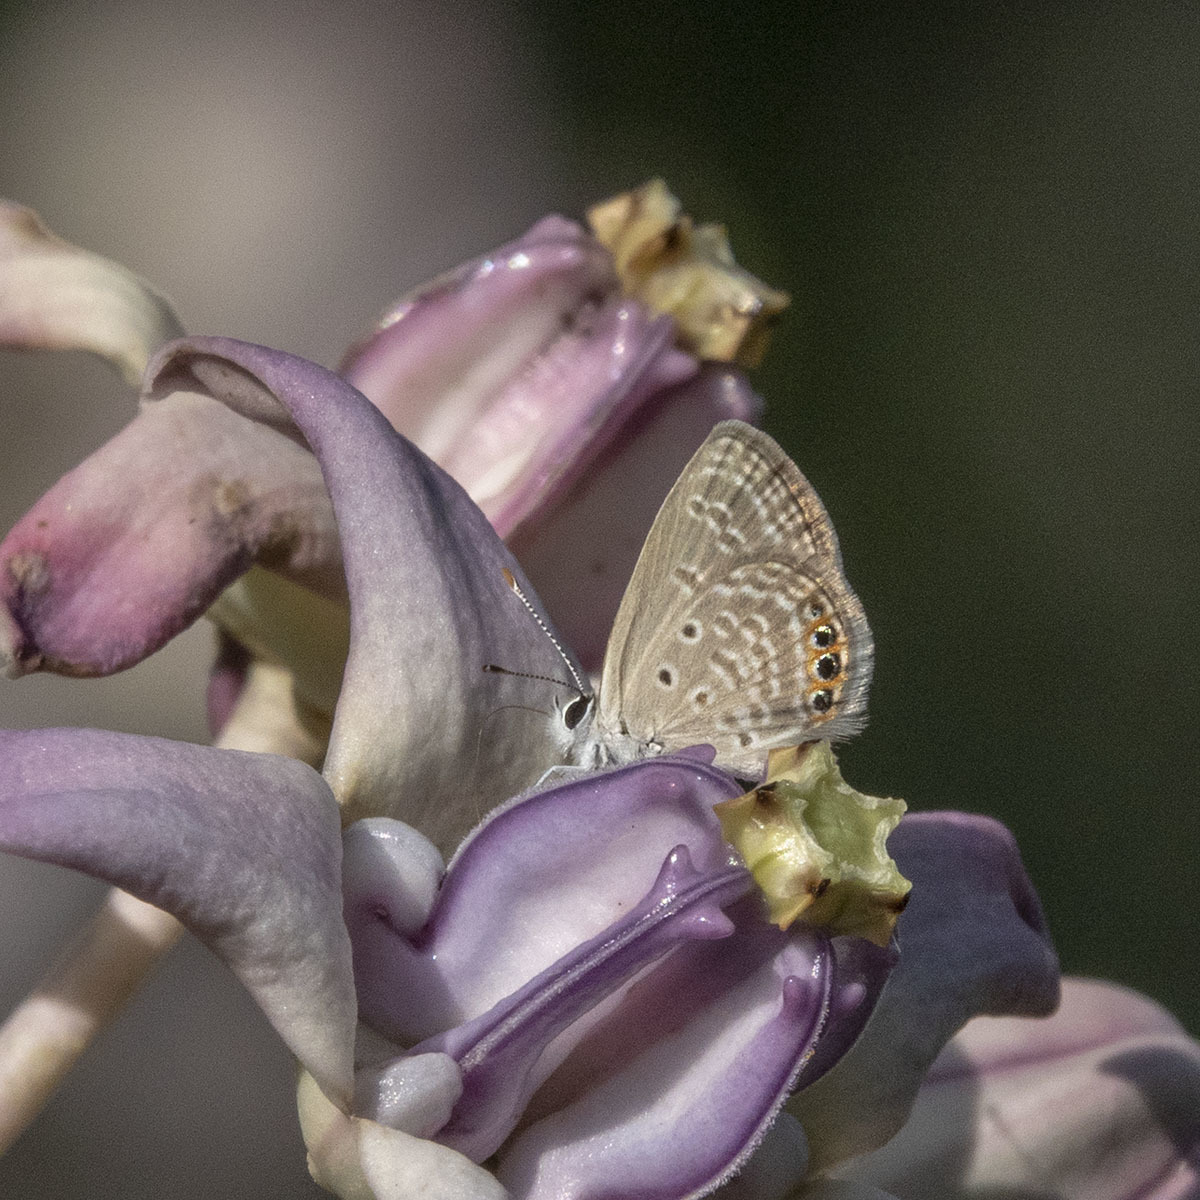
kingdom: Animalia
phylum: Arthropoda
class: Insecta
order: Lepidoptera
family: Lycaenidae
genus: Freyeria
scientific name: Freyeria trochylus
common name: Grass jewel
